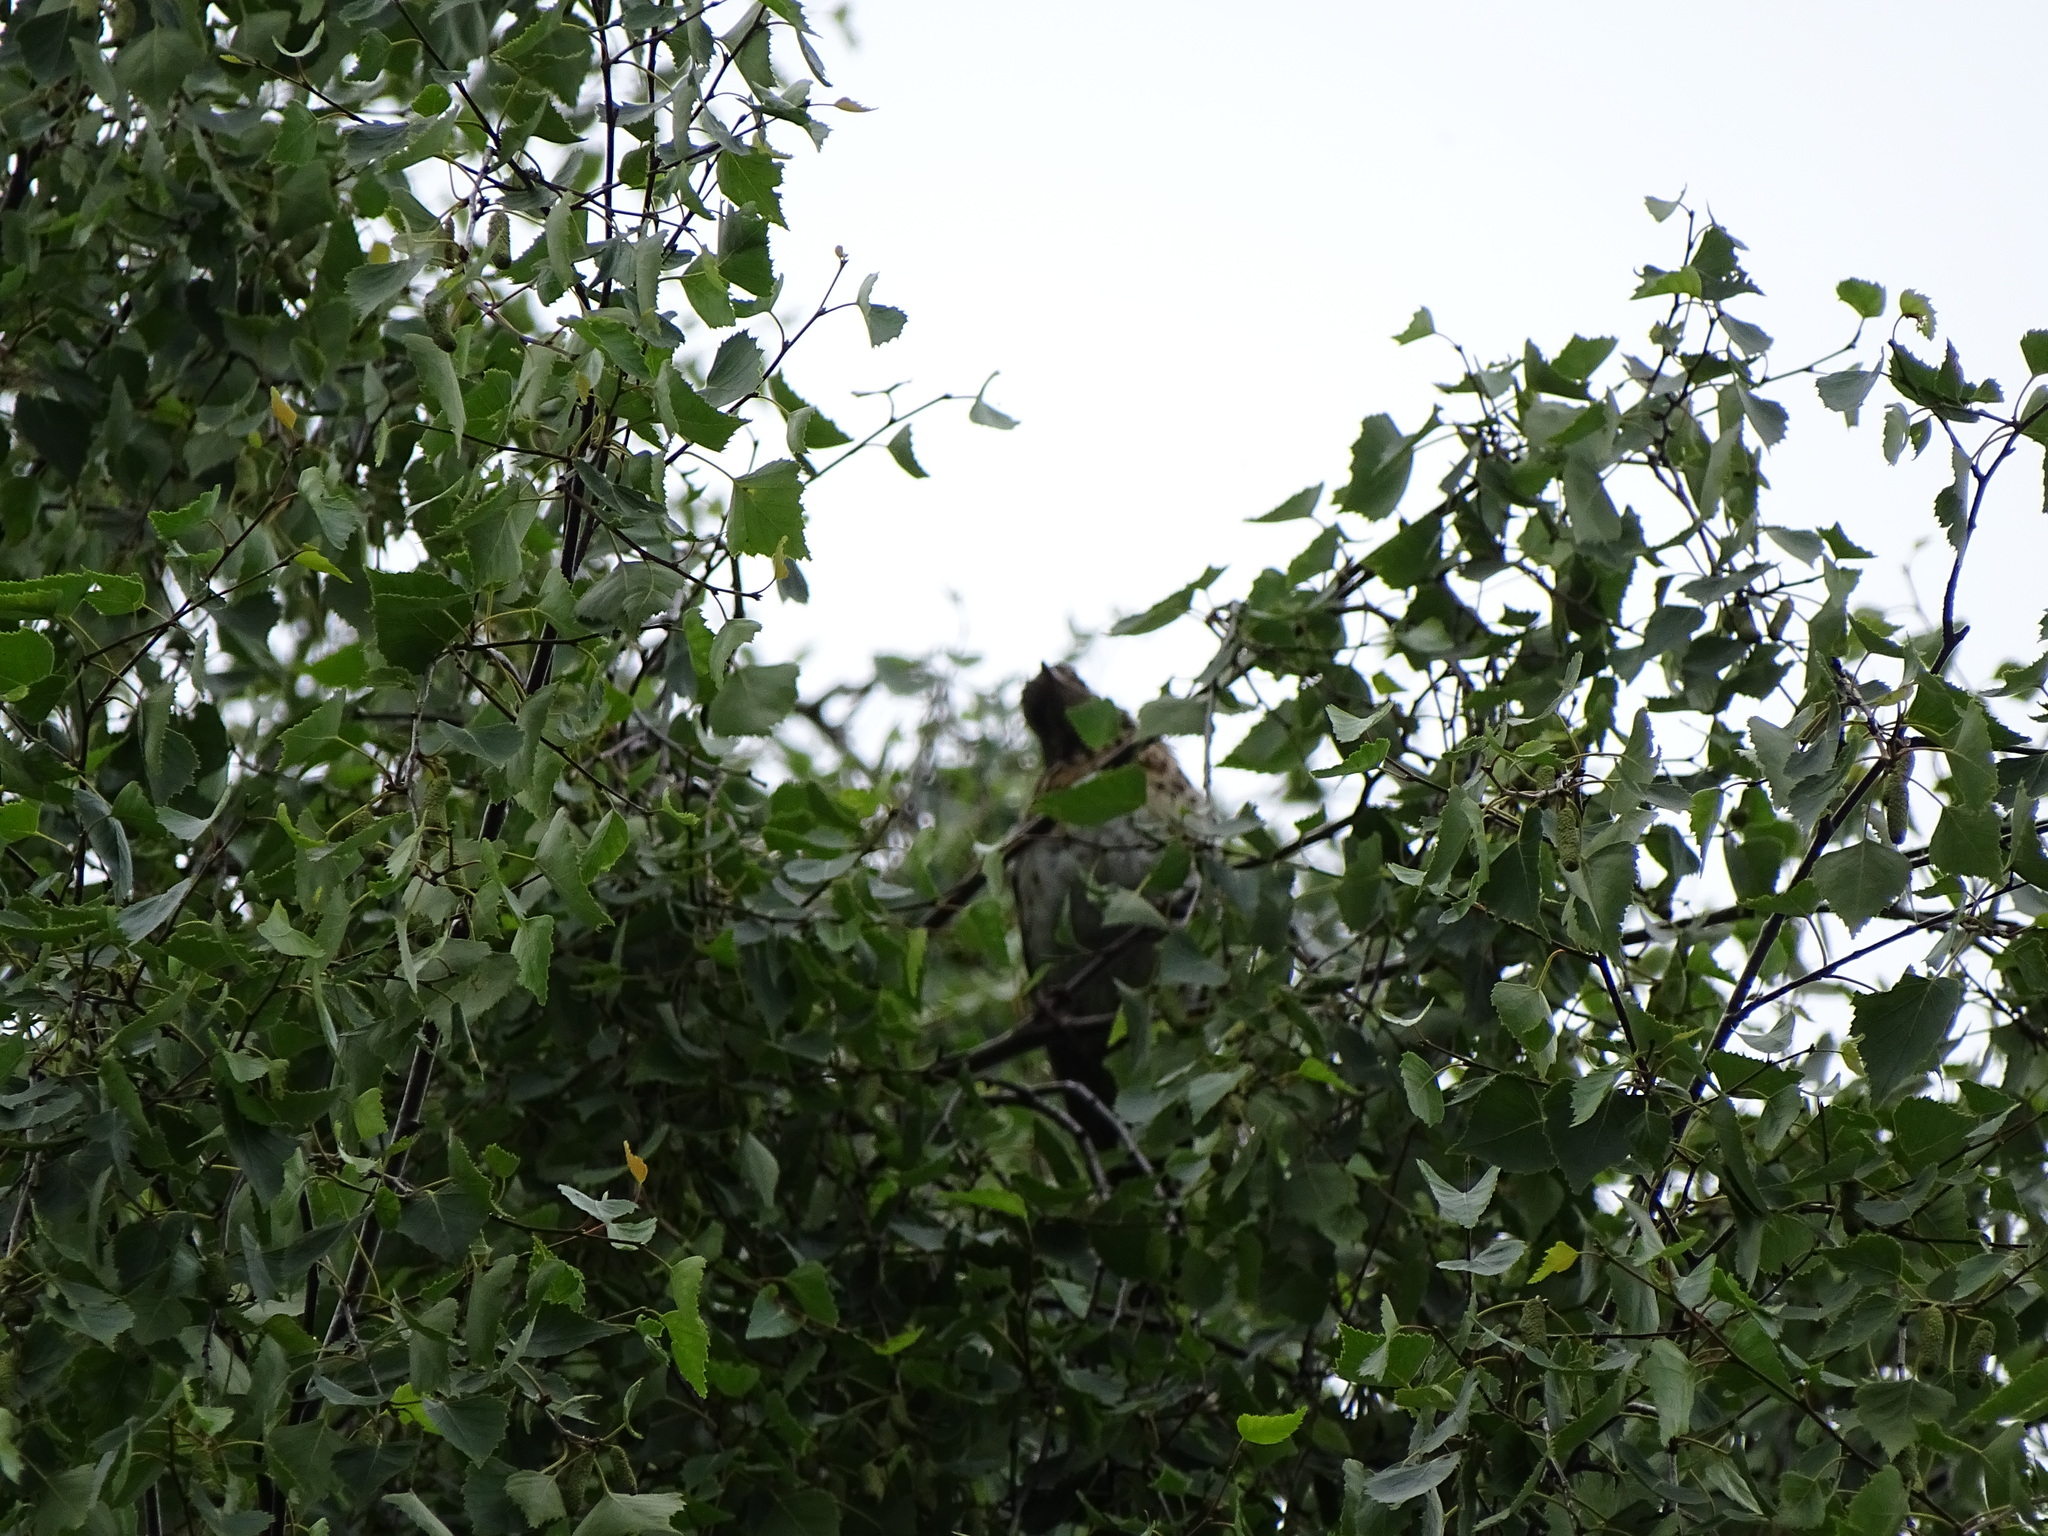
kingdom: Animalia
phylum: Chordata
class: Aves
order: Passeriformes
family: Turdidae
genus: Turdus
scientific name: Turdus pilaris
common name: Fieldfare
